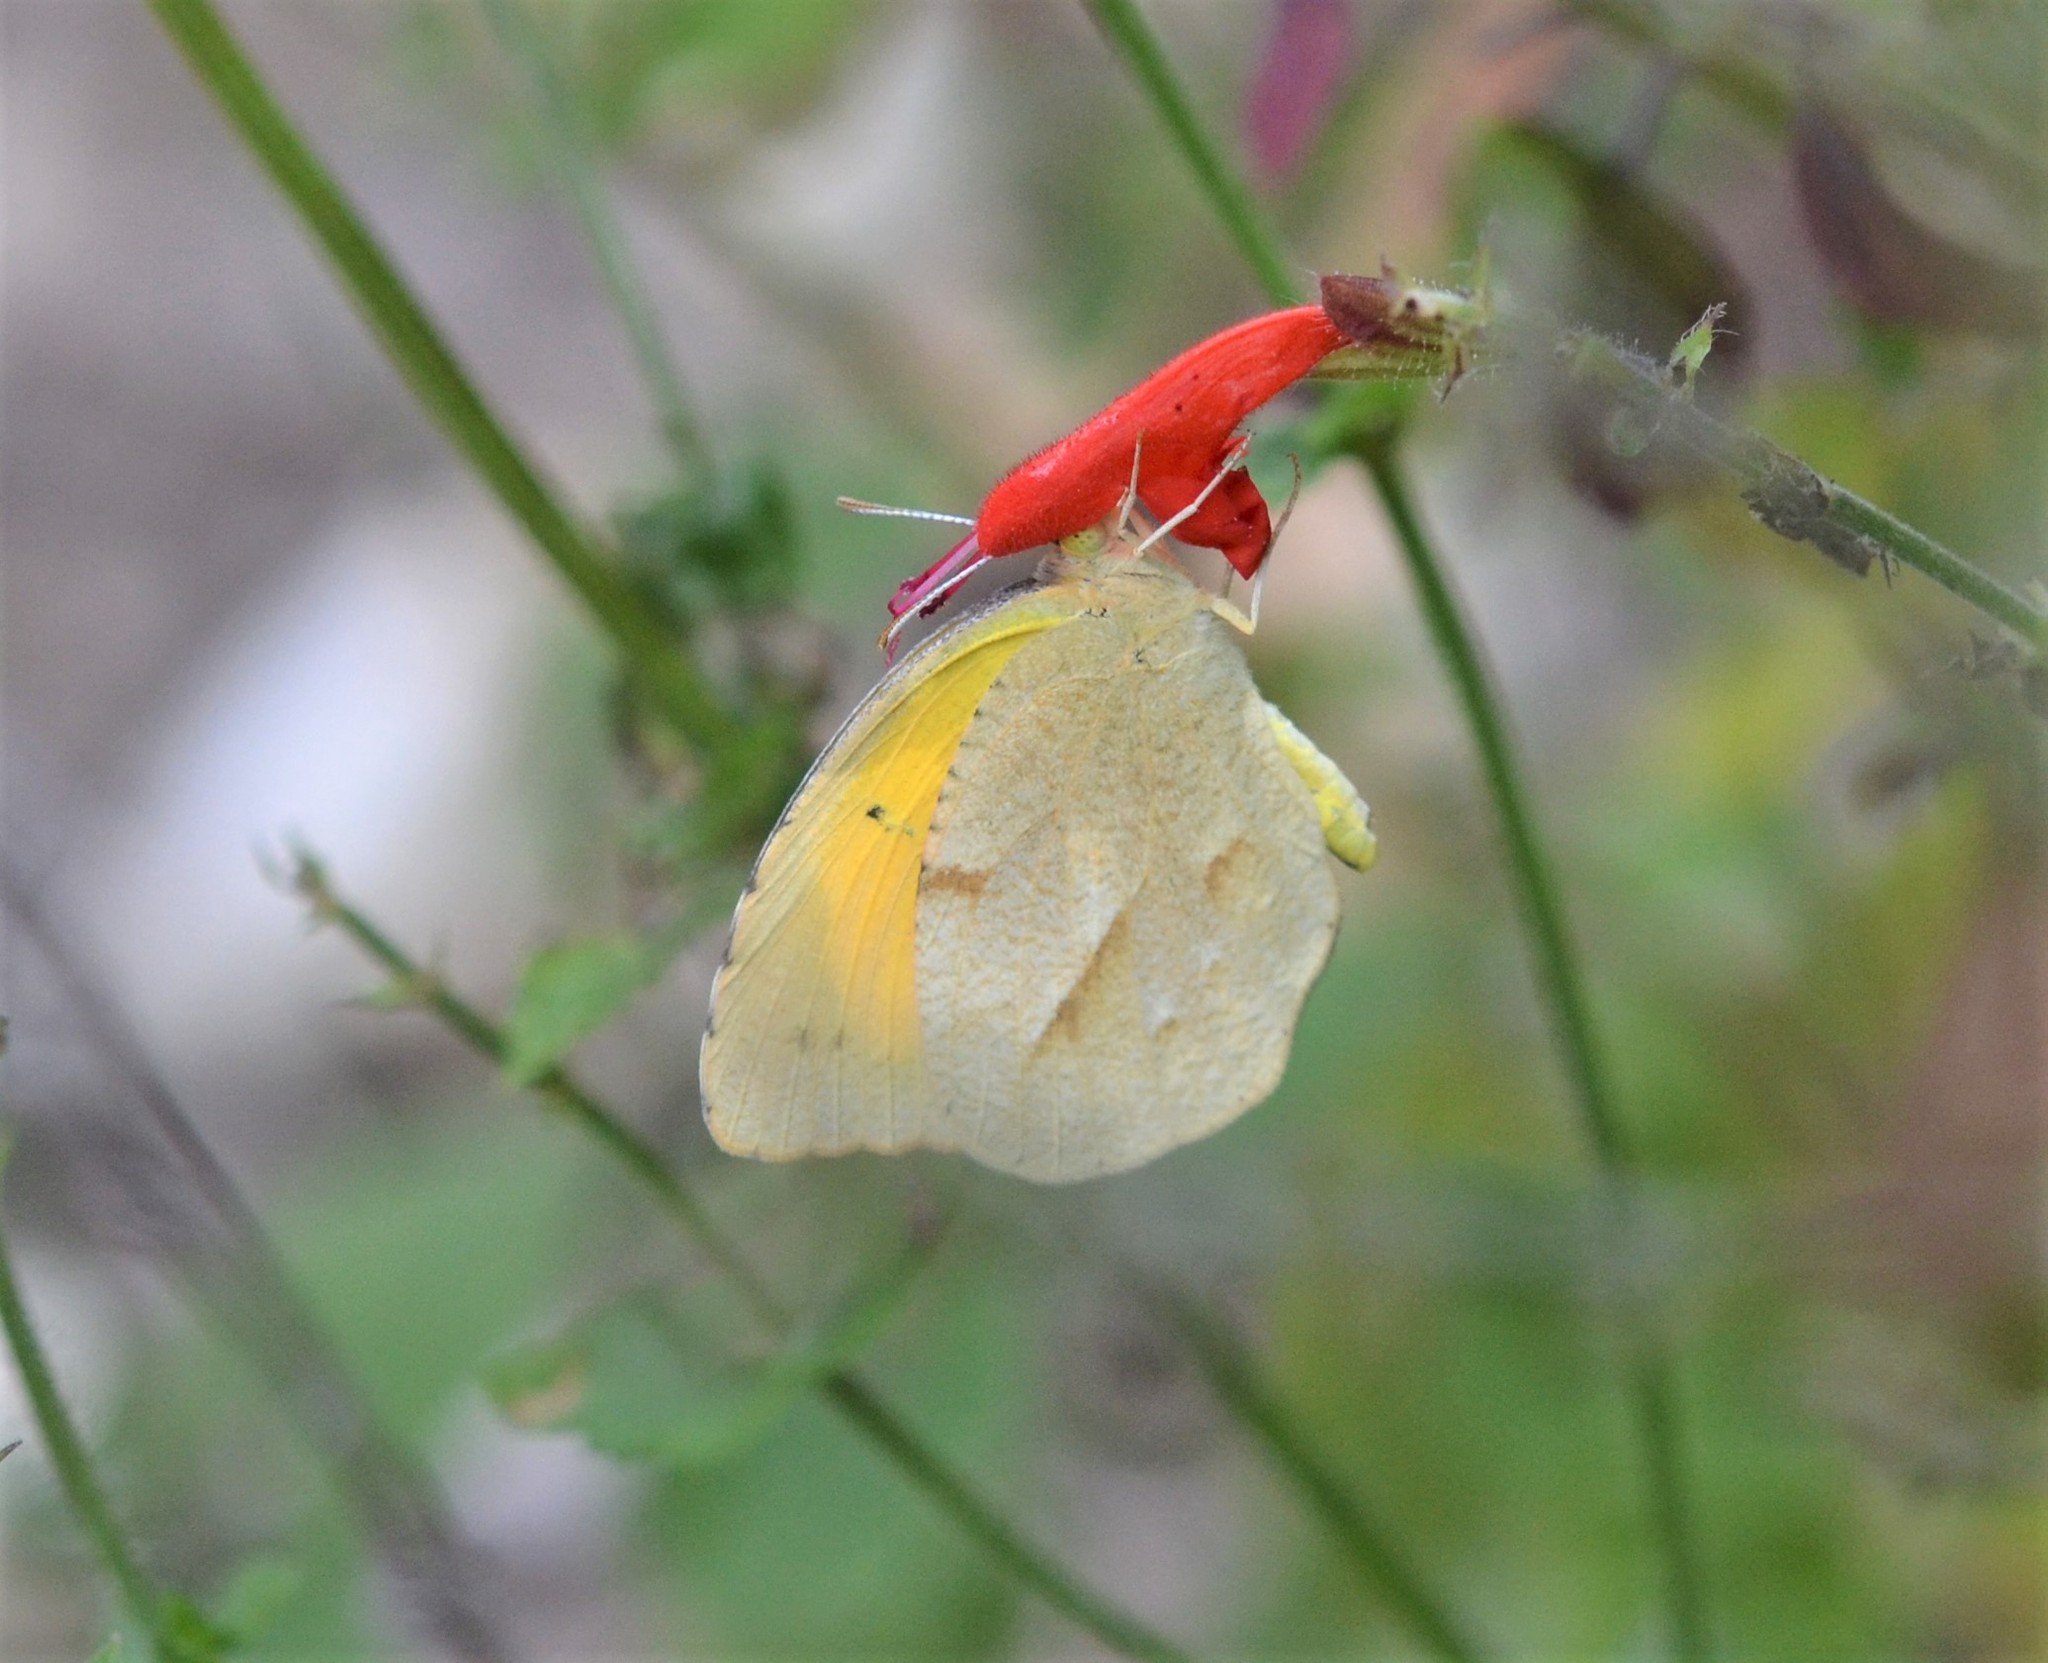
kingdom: Animalia
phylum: Arthropoda
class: Insecta
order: Lepidoptera
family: Pieridae
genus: Abaeis
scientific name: Abaeis nicippe
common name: Sleepy orange
